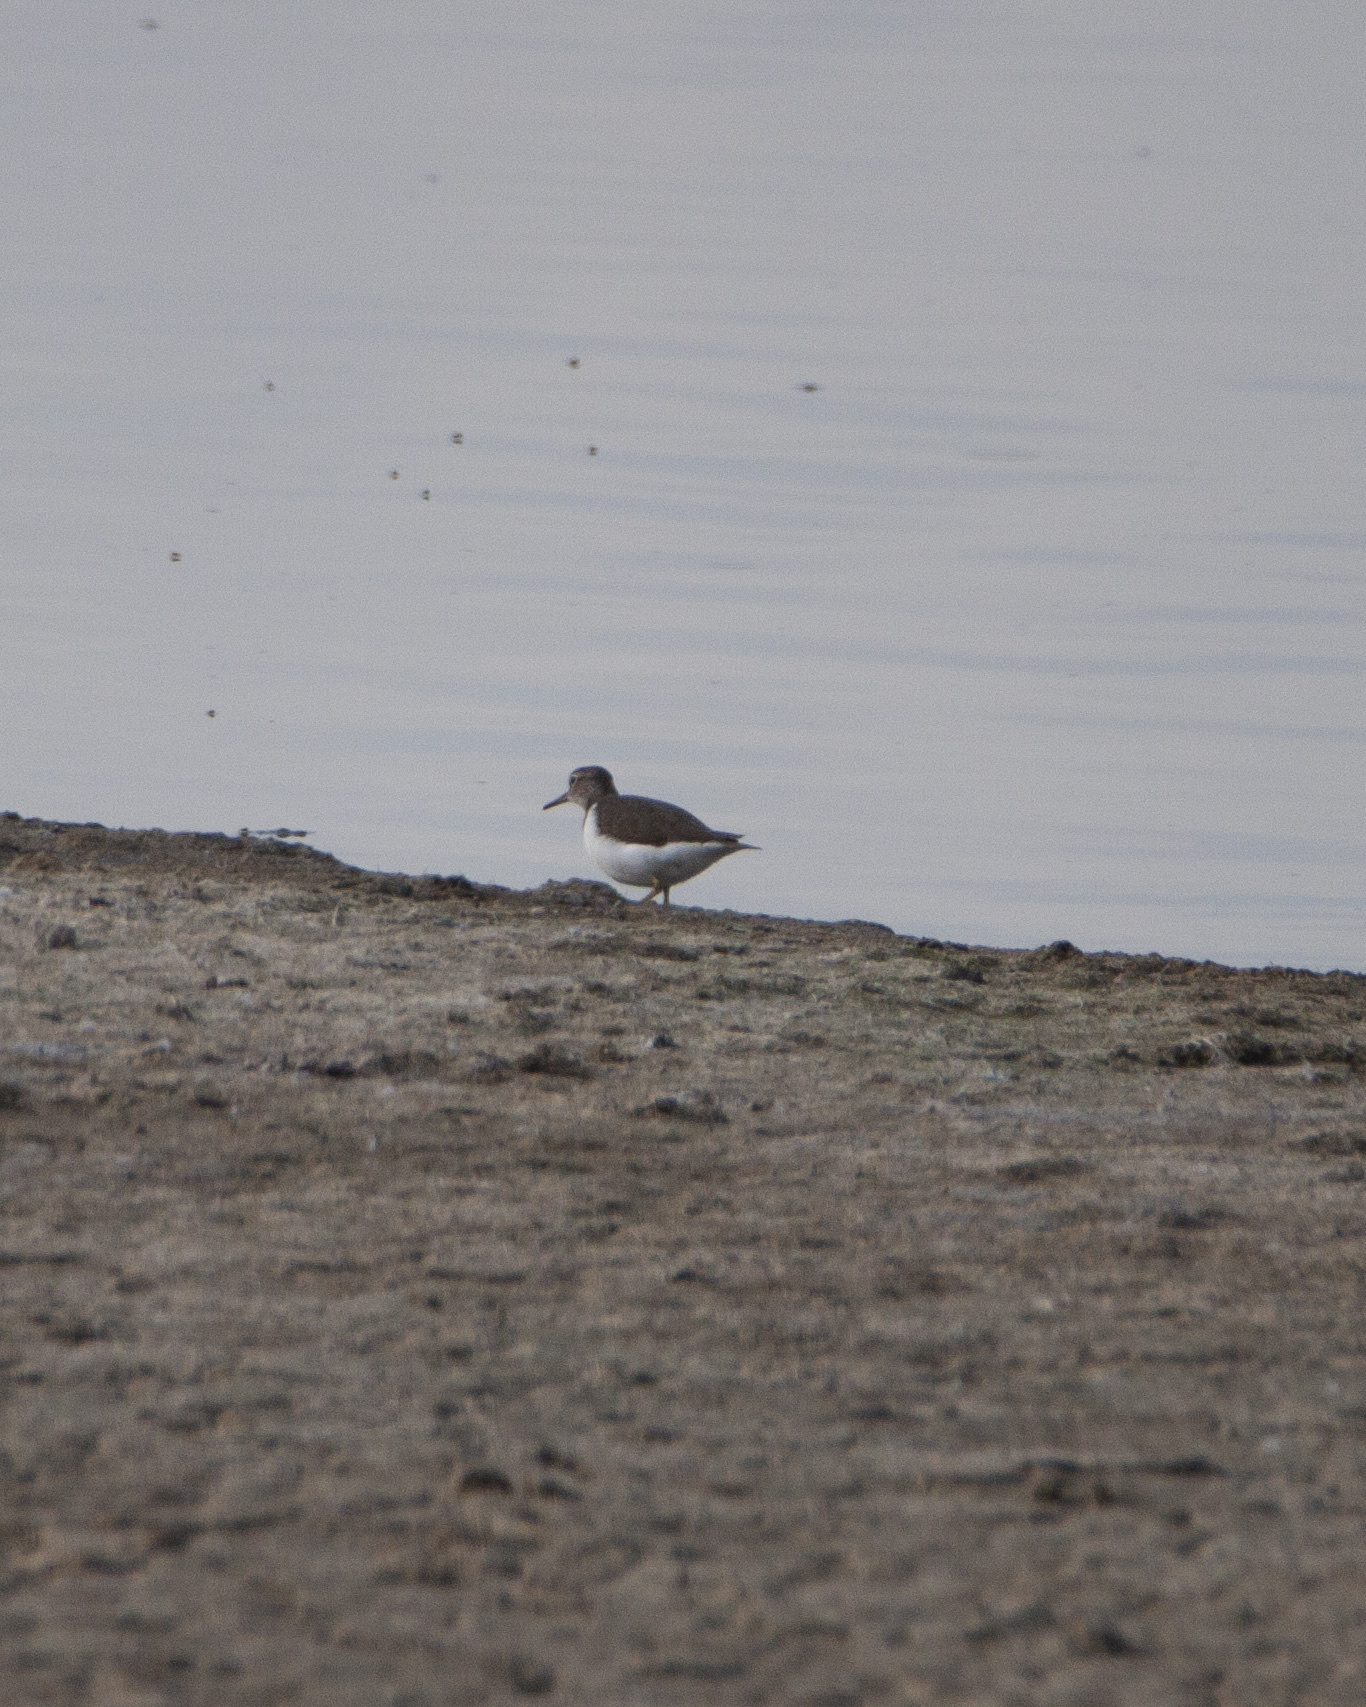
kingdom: Animalia
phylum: Chordata
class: Aves
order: Charadriiformes
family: Scolopacidae
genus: Actitis
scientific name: Actitis hypoleucos
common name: Common sandpiper
